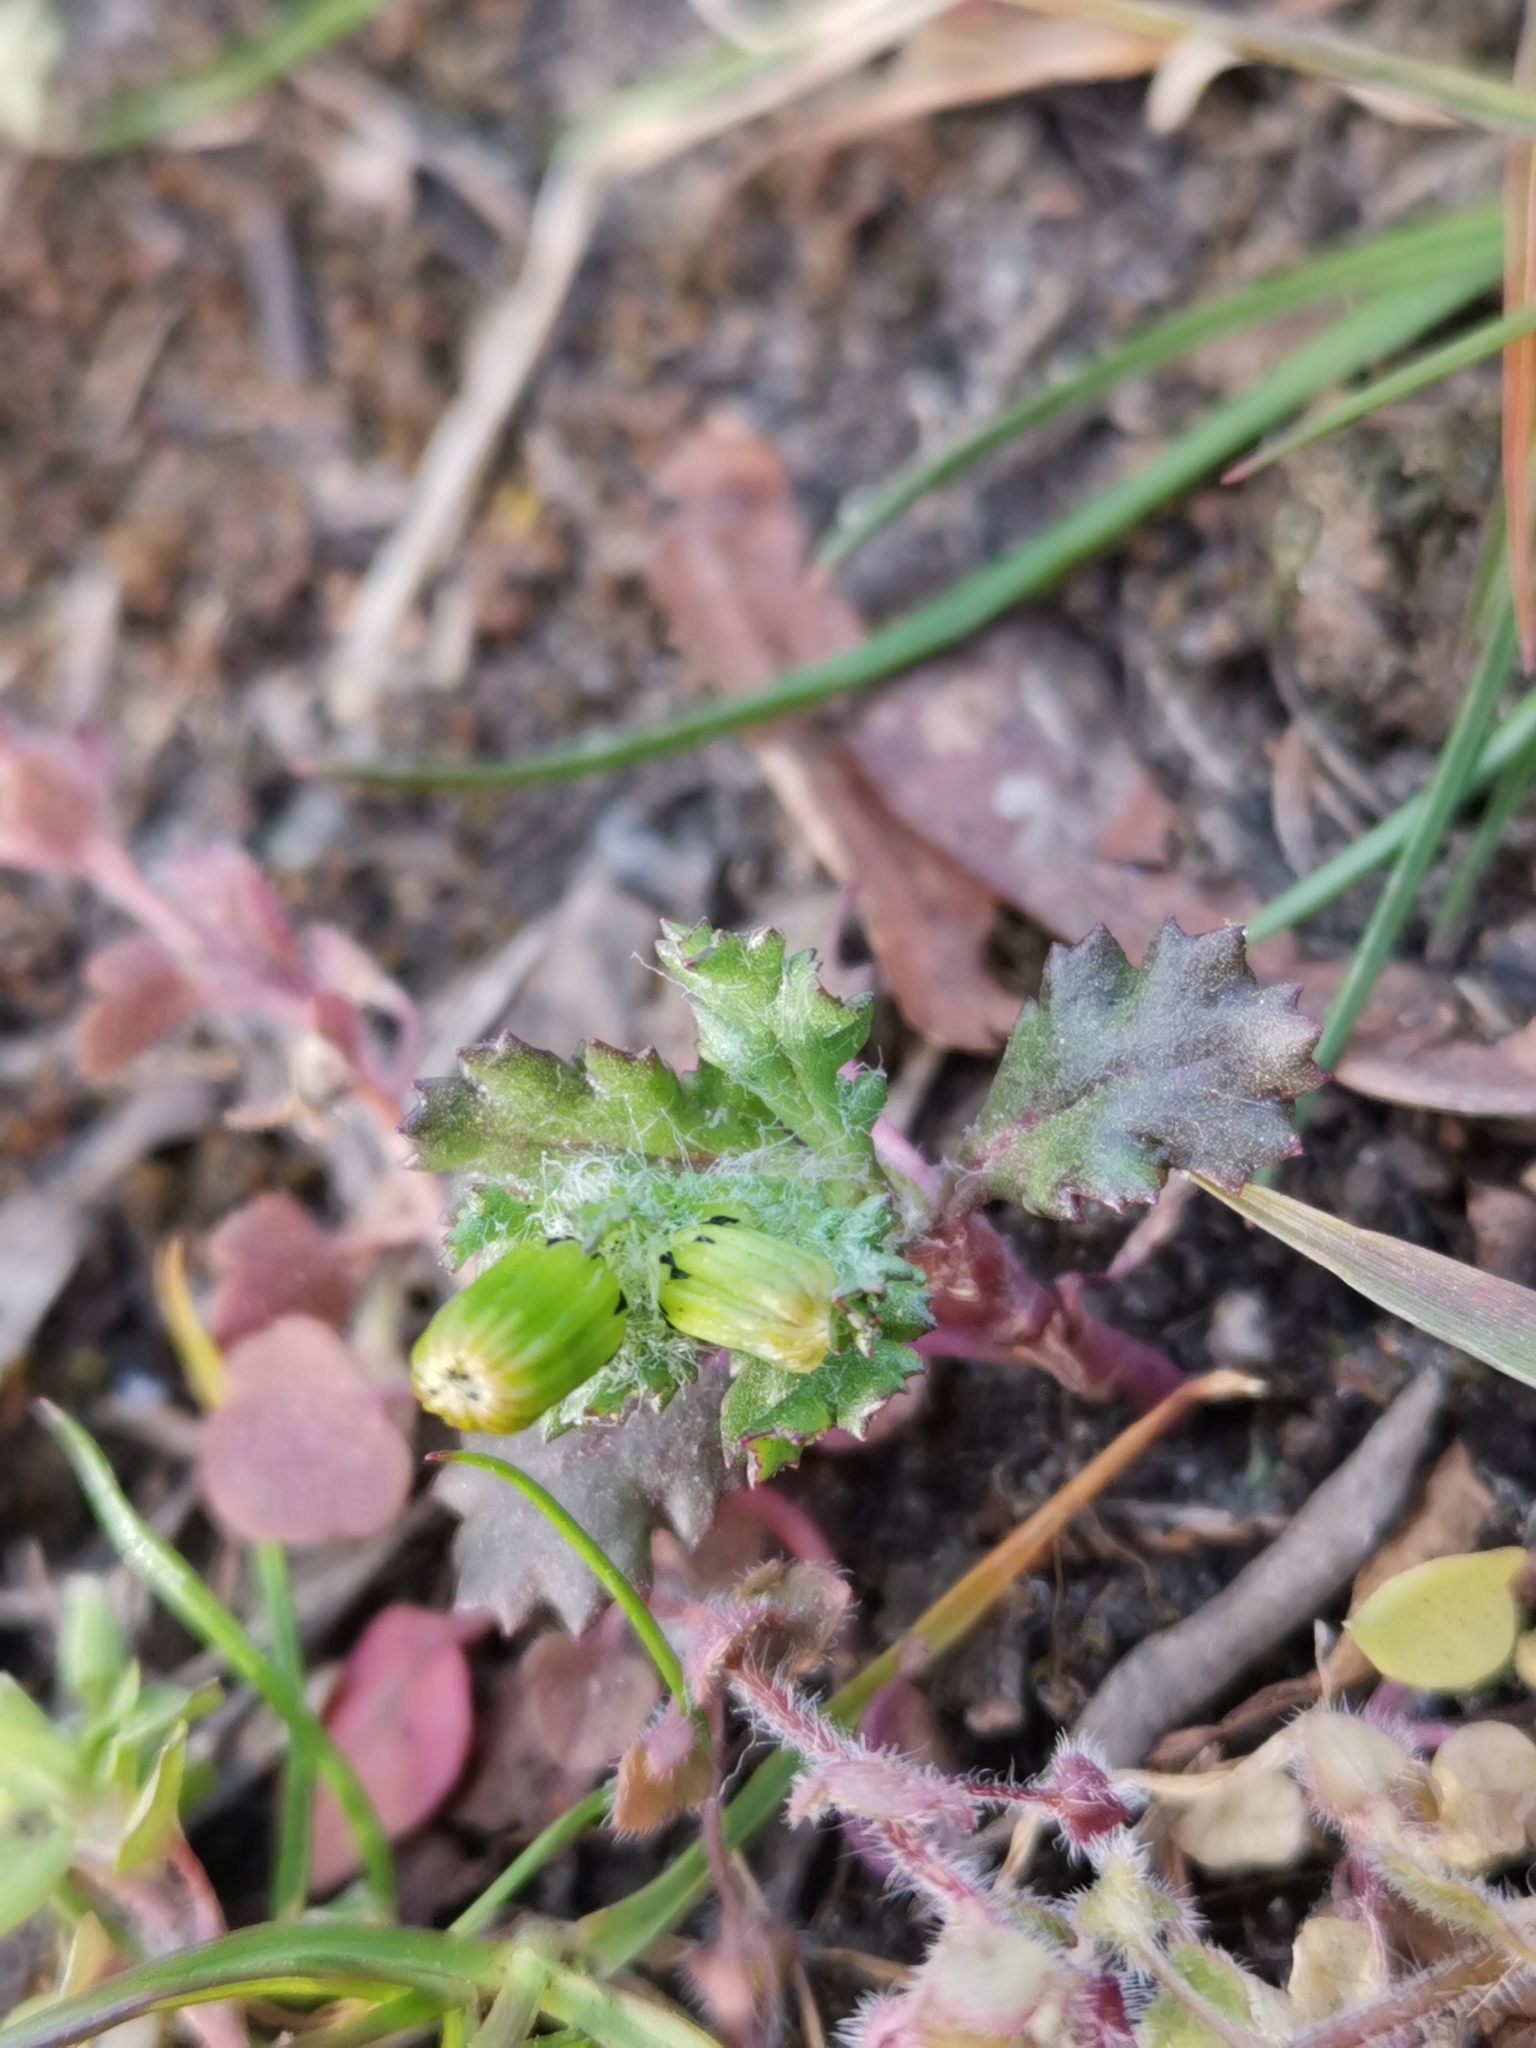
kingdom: Plantae
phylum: Tracheophyta
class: Magnoliopsida
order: Asterales
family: Asteraceae
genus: Senecio
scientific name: Senecio vulgaris
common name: Old-man-in-the-spring
